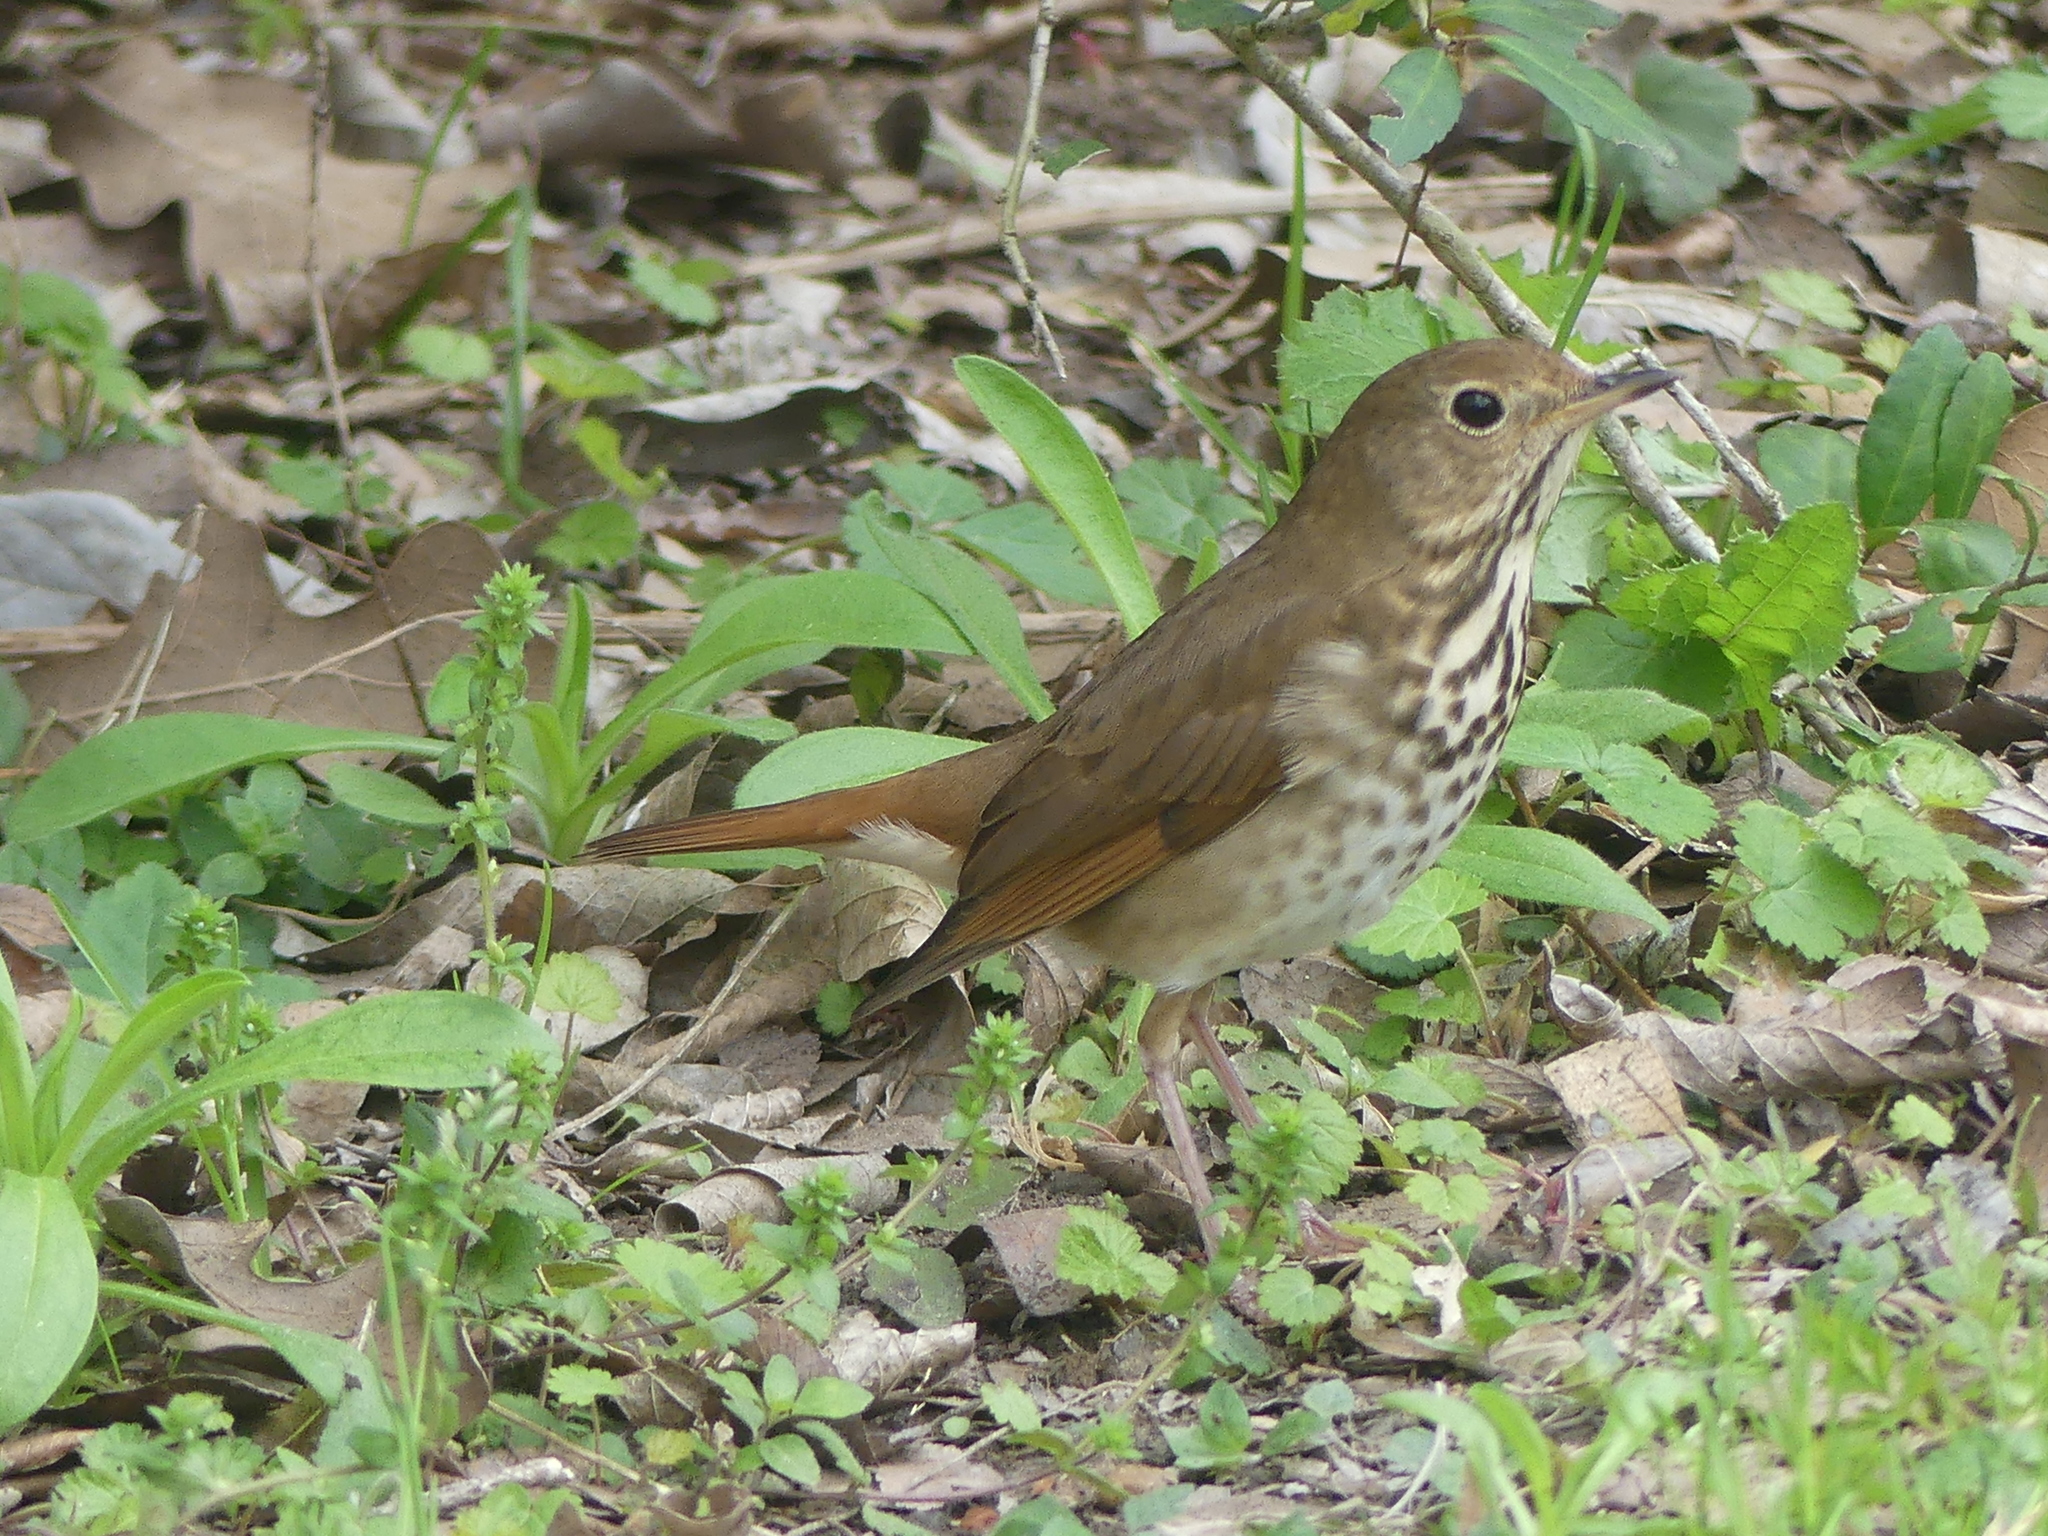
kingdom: Animalia
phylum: Chordata
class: Aves
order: Passeriformes
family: Turdidae
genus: Catharus
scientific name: Catharus guttatus
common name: Hermit thrush
